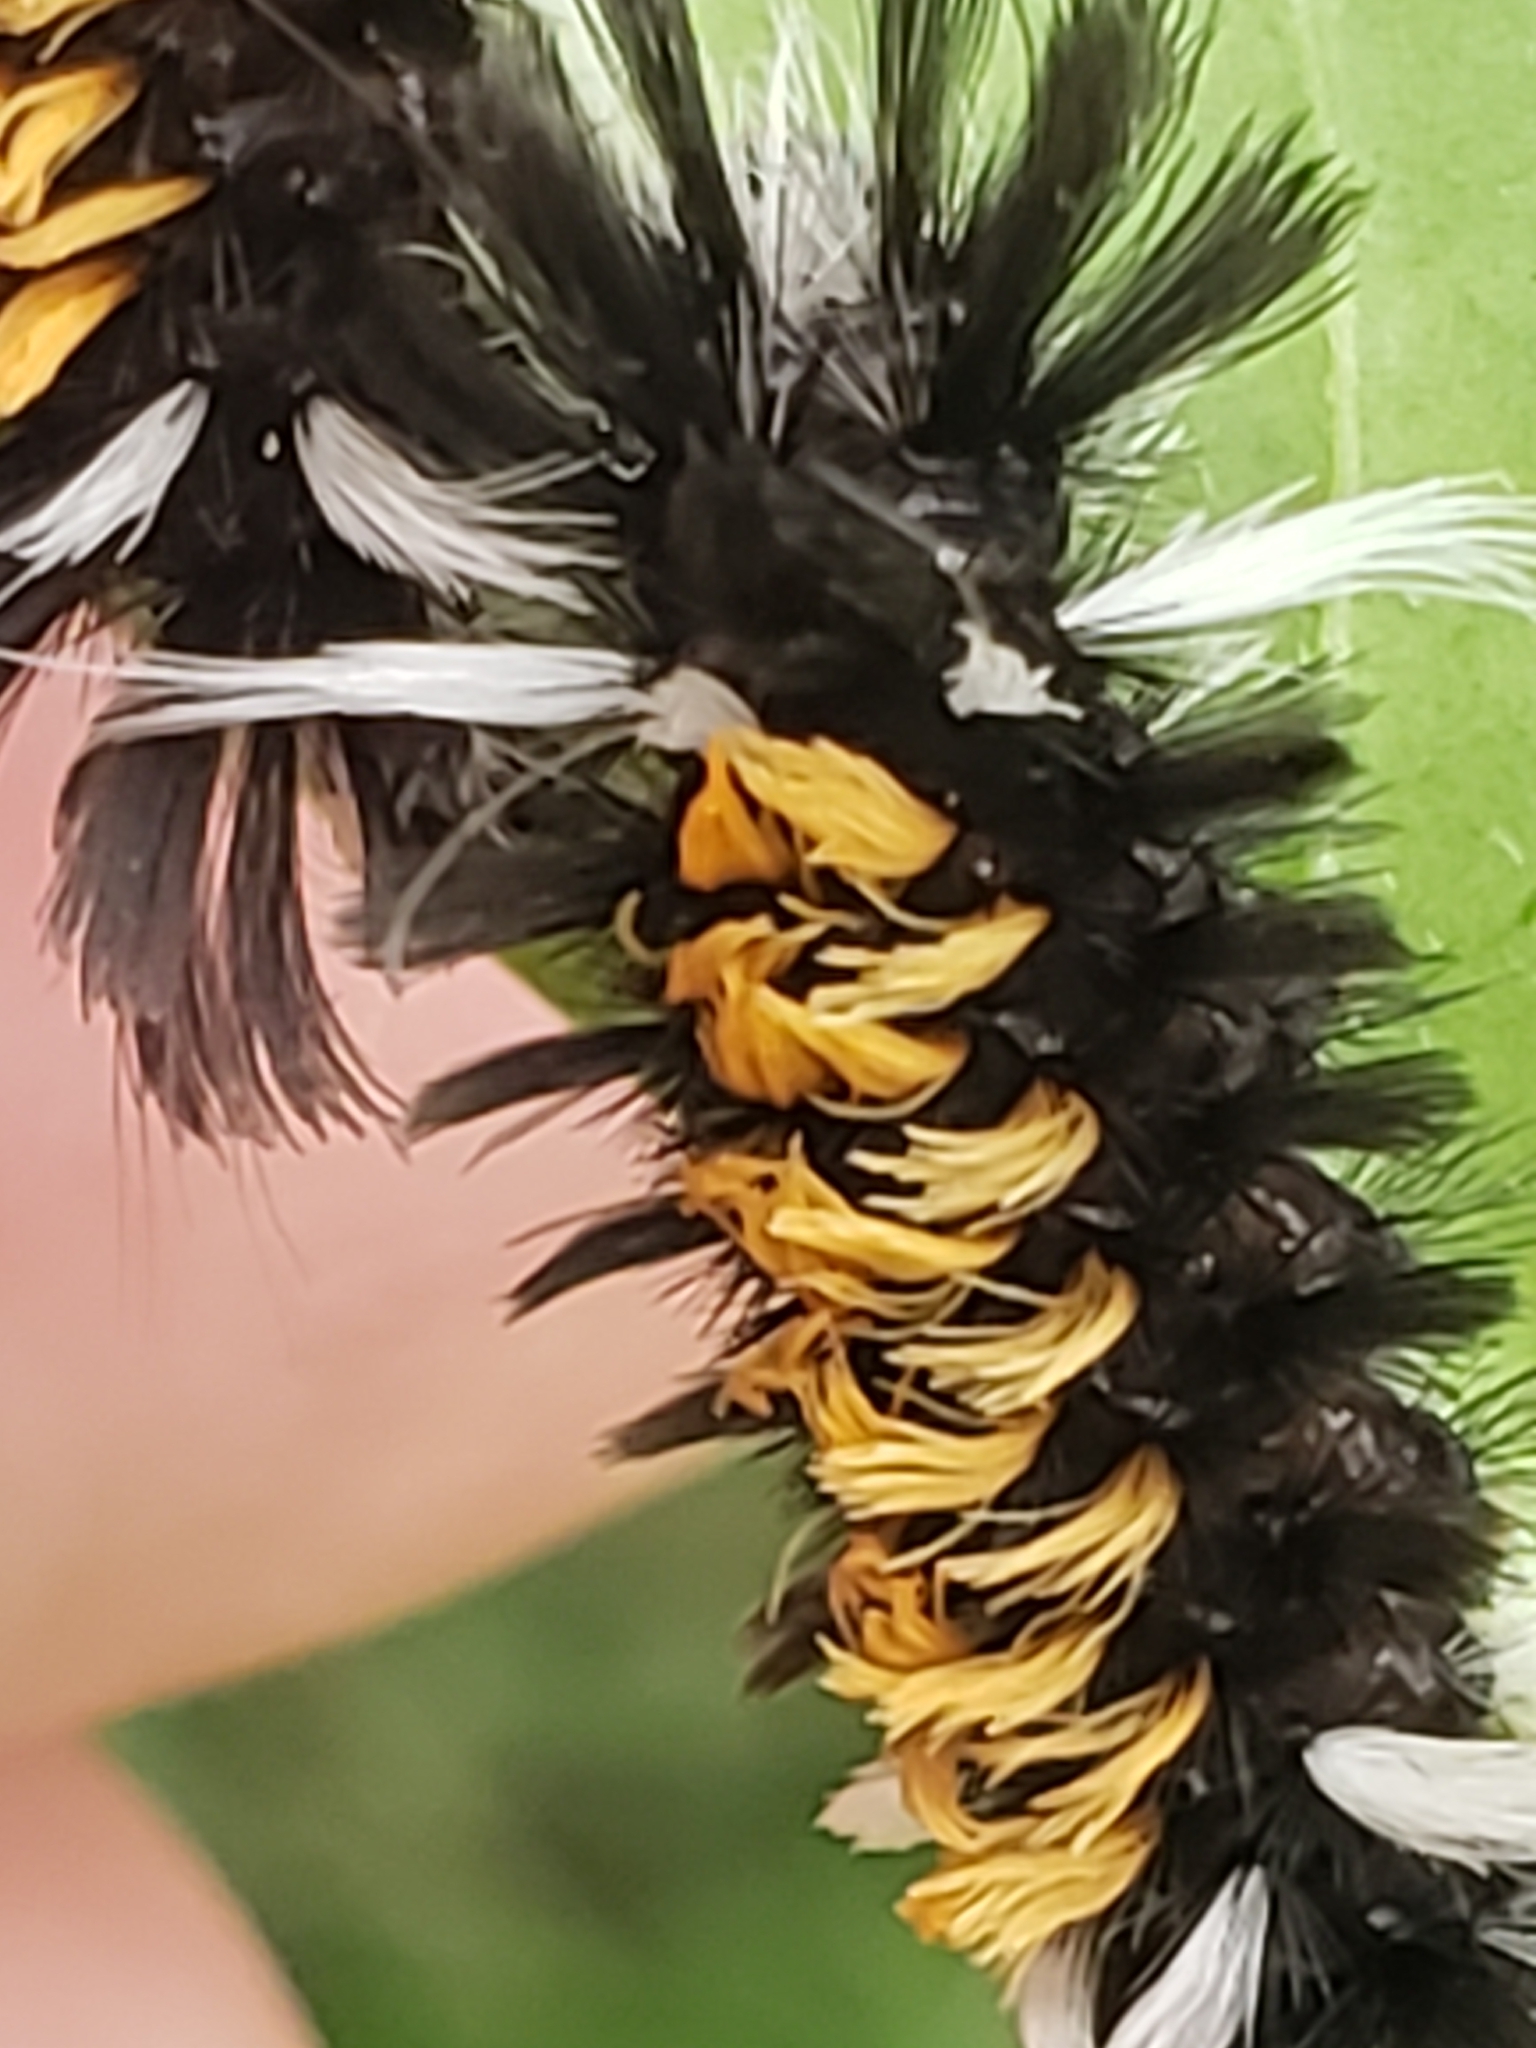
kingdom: Animalia
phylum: Arthropoda
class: Insecta
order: Lepidoptera
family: Erebidae
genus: Euchaetes
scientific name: Euchaetes egle
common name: Milkweed tussock moth
